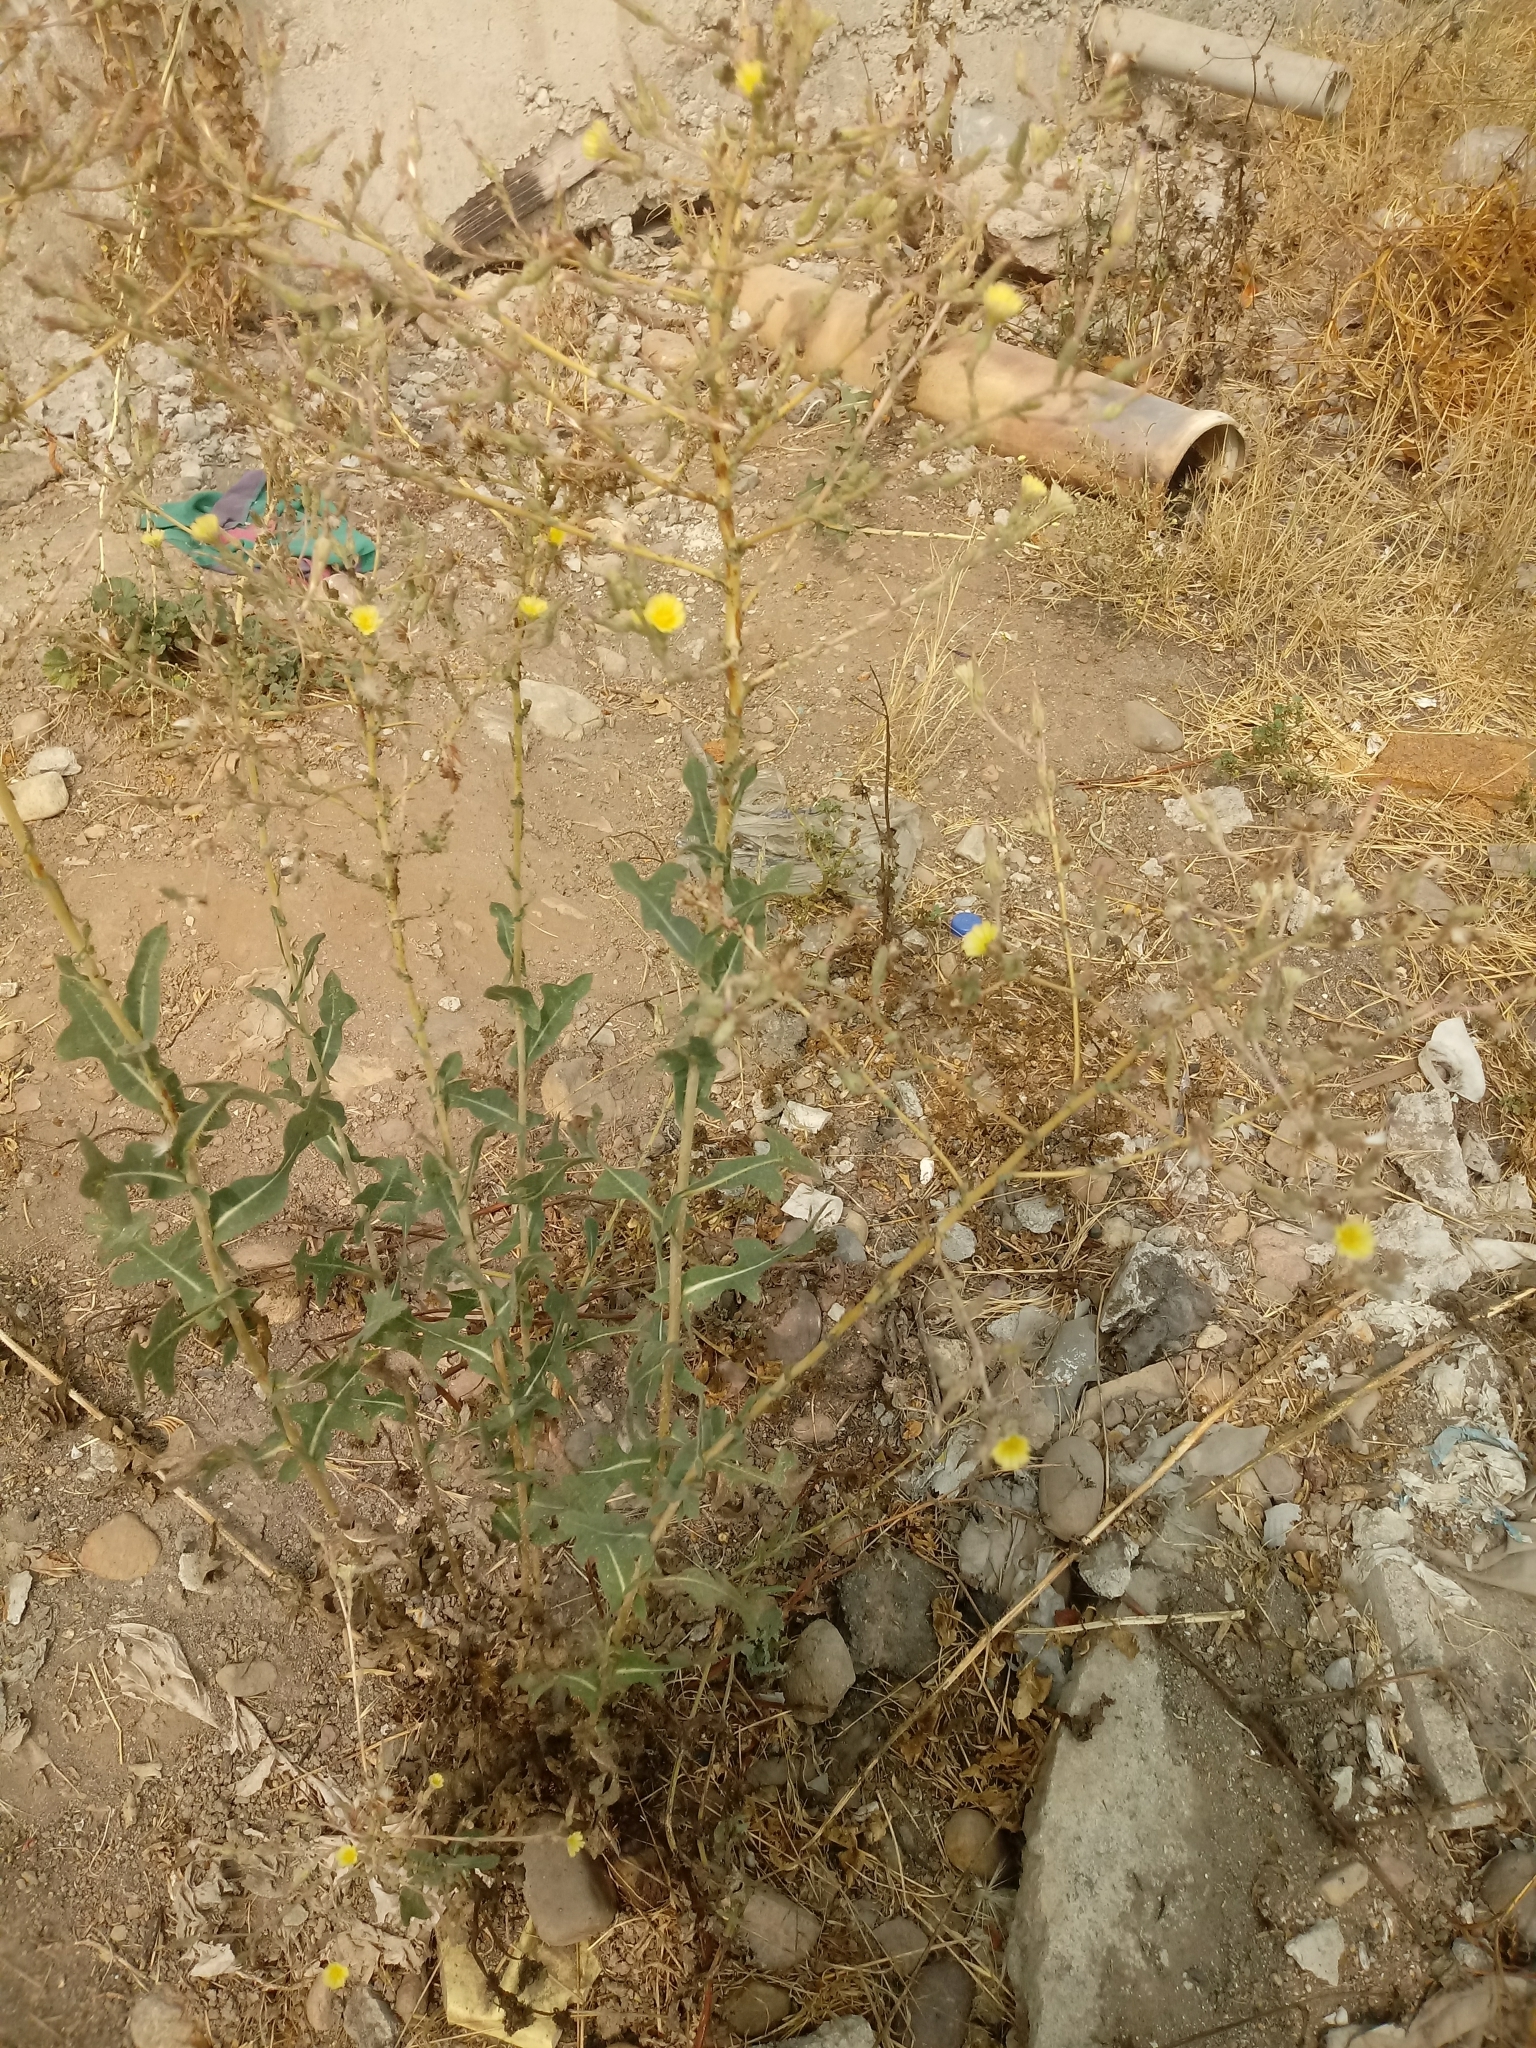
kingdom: Plantae
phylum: Tracheophyta
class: Magnoliopsida
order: Asterales
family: Asteraceae
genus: Lactuca
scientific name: Lactuca serriola
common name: Prickly lettuce
